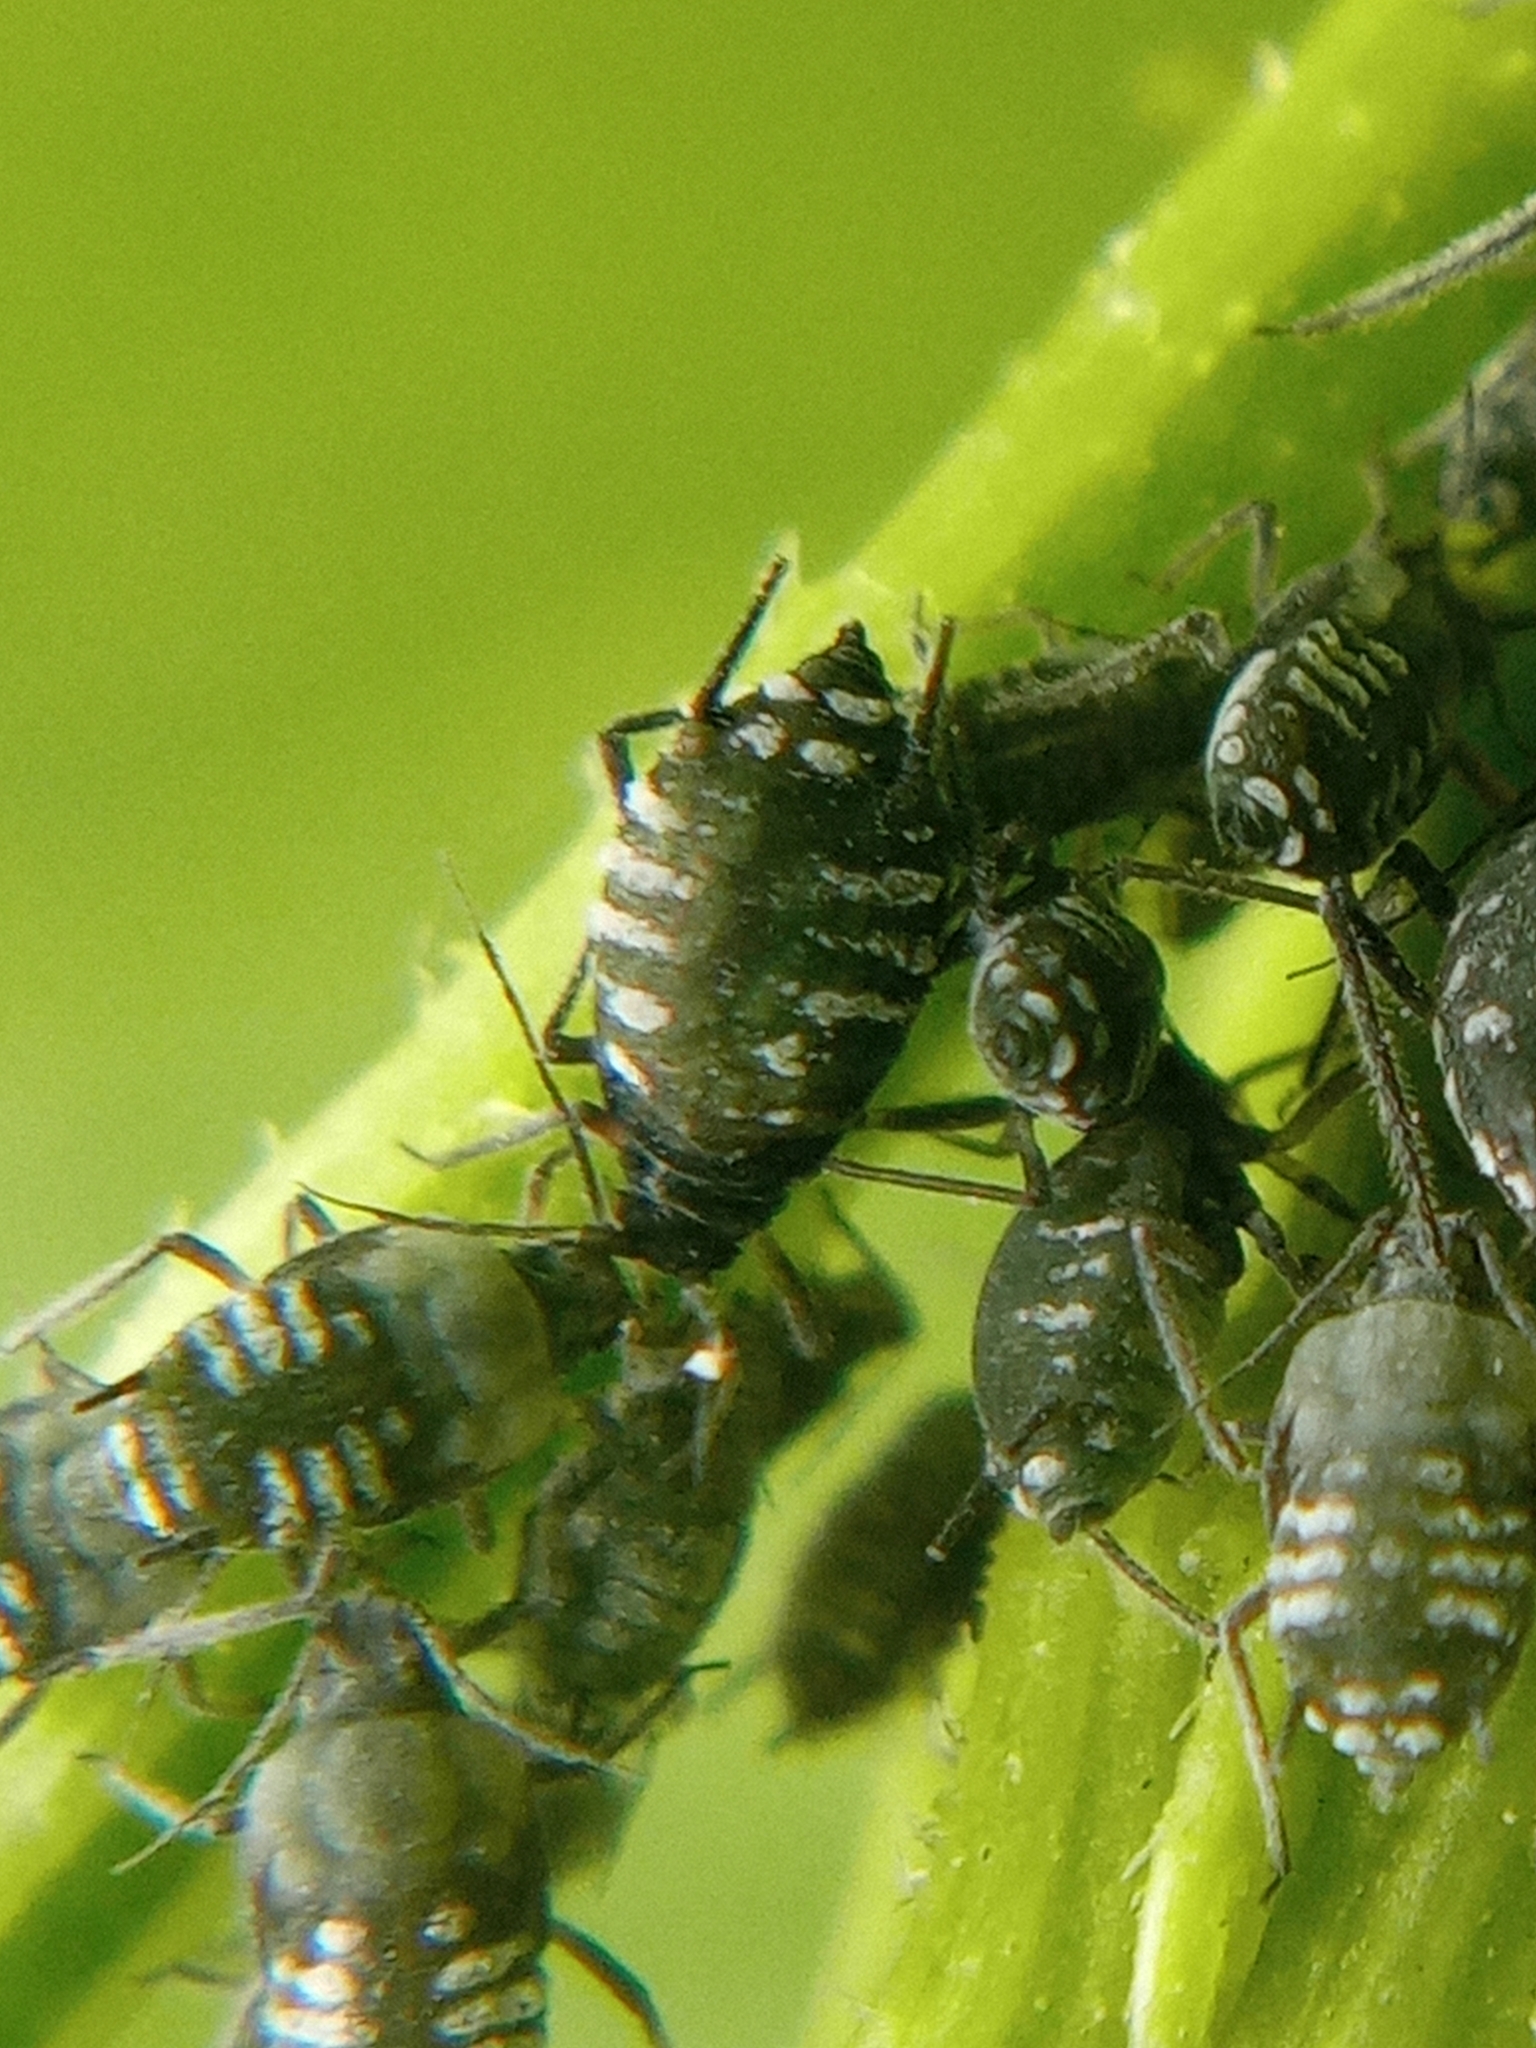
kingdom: Animalia
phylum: Arthropoda
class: Insecta
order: Hemiptera
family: Aphididae
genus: Aphis
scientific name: Aphis sambuci
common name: Elder aphid
